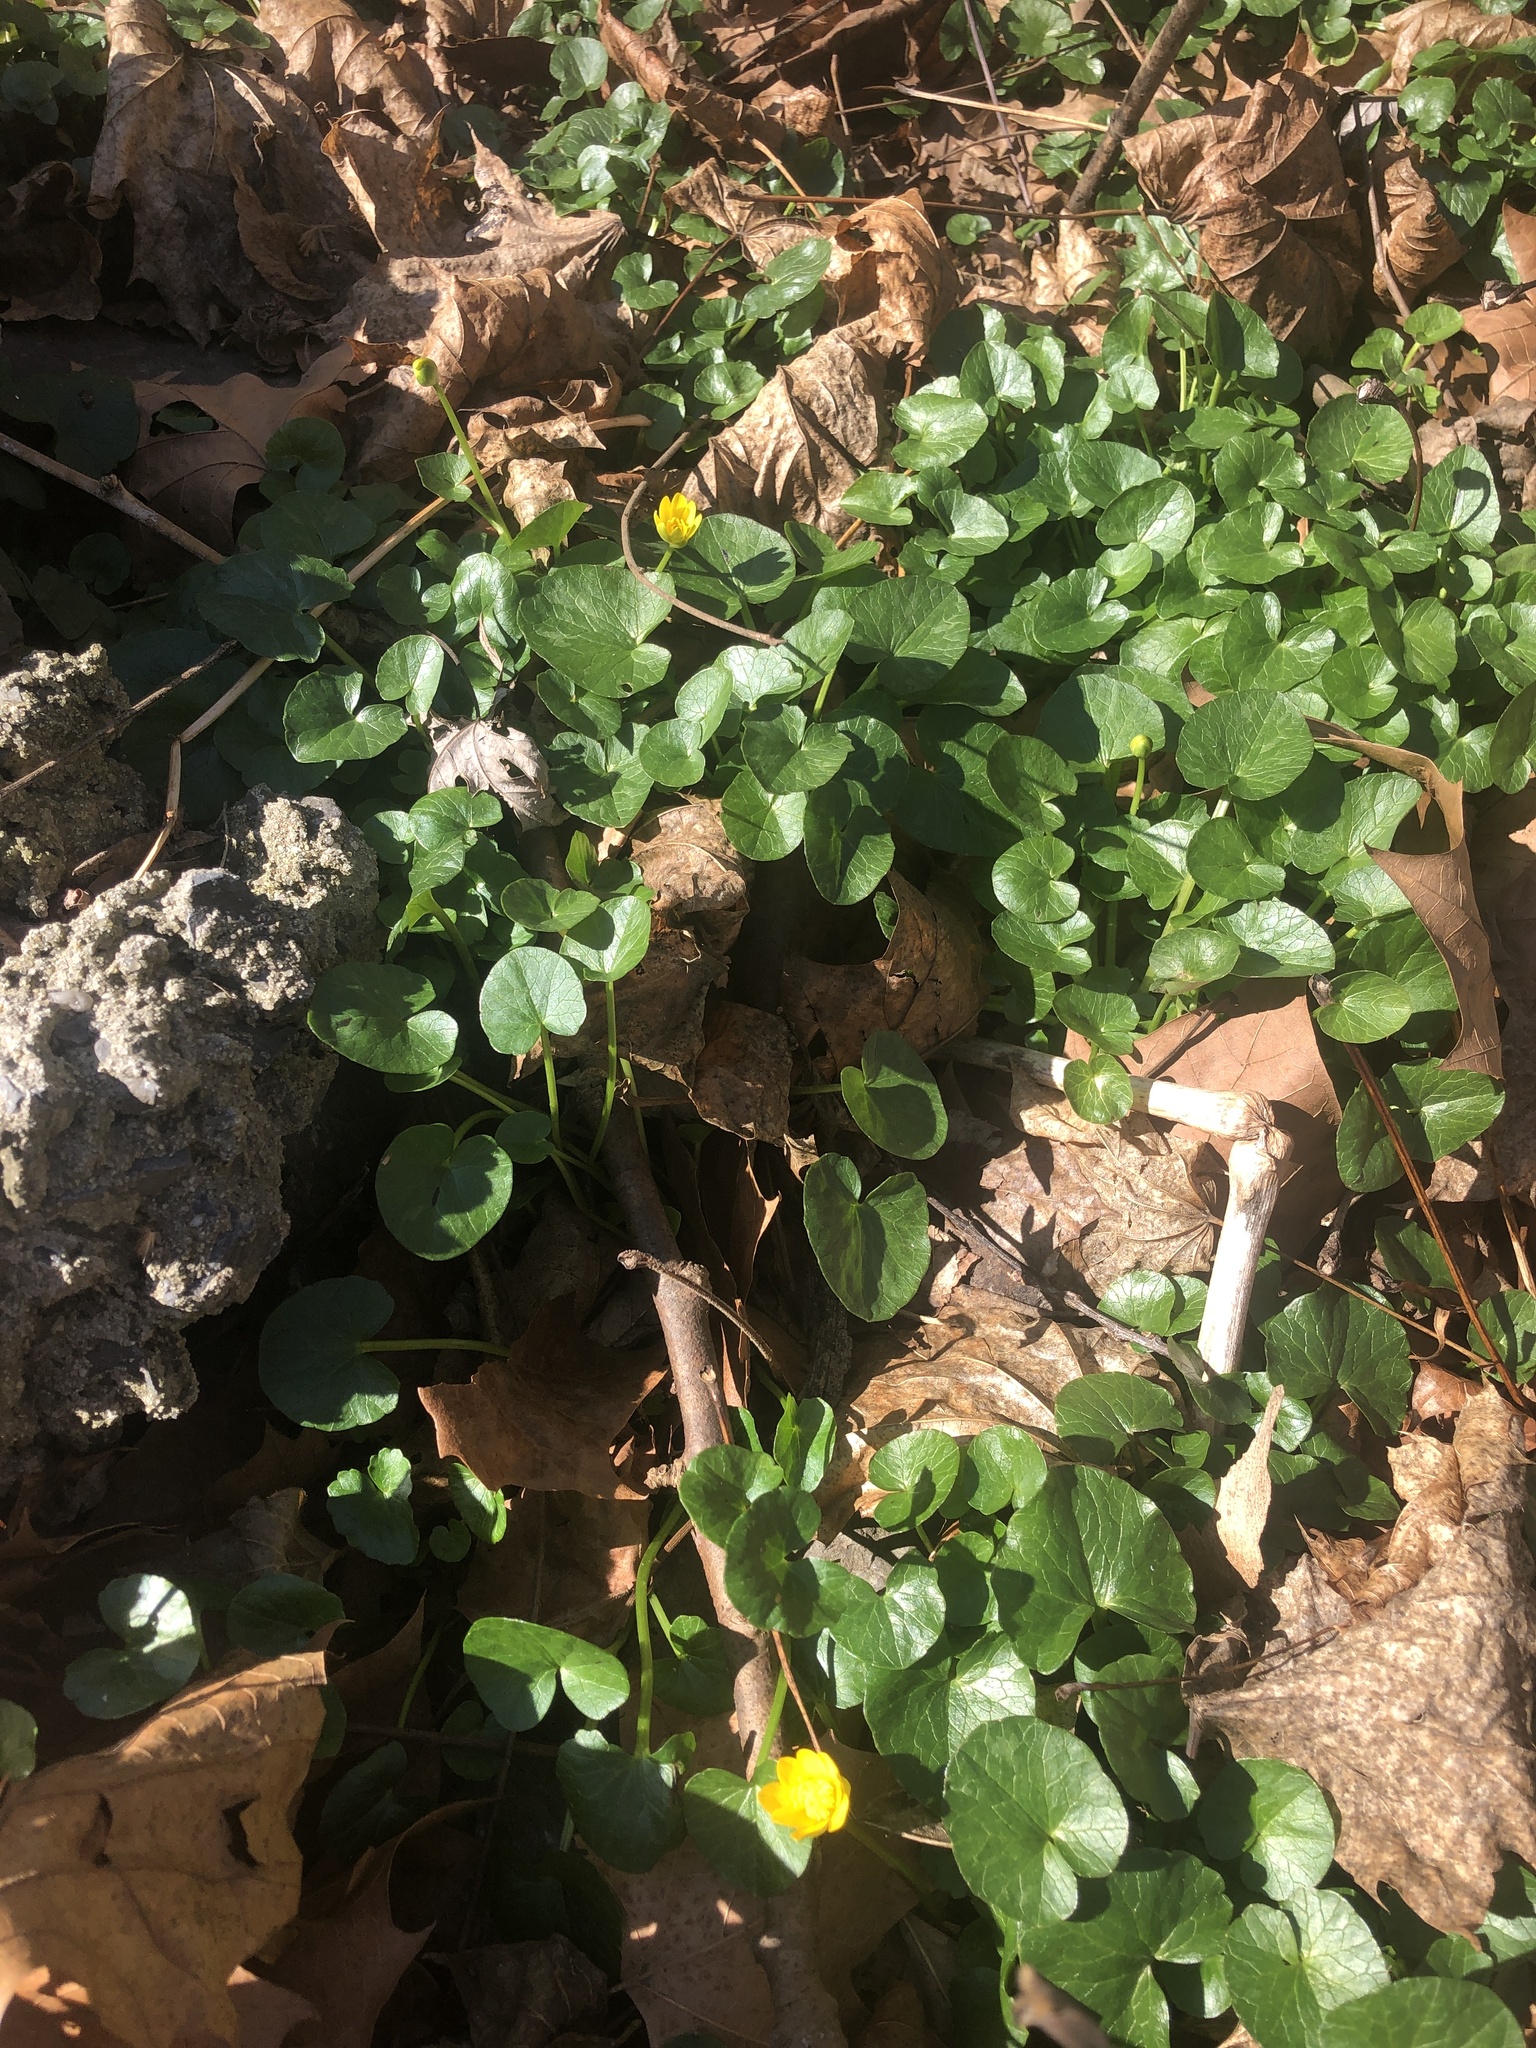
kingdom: Plantae
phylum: Tracheophyta
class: Magnoliopsida
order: Ranunculales
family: Ranunculaceae
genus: Ficaria
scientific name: Ficaria verna
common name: Lesser celandine
